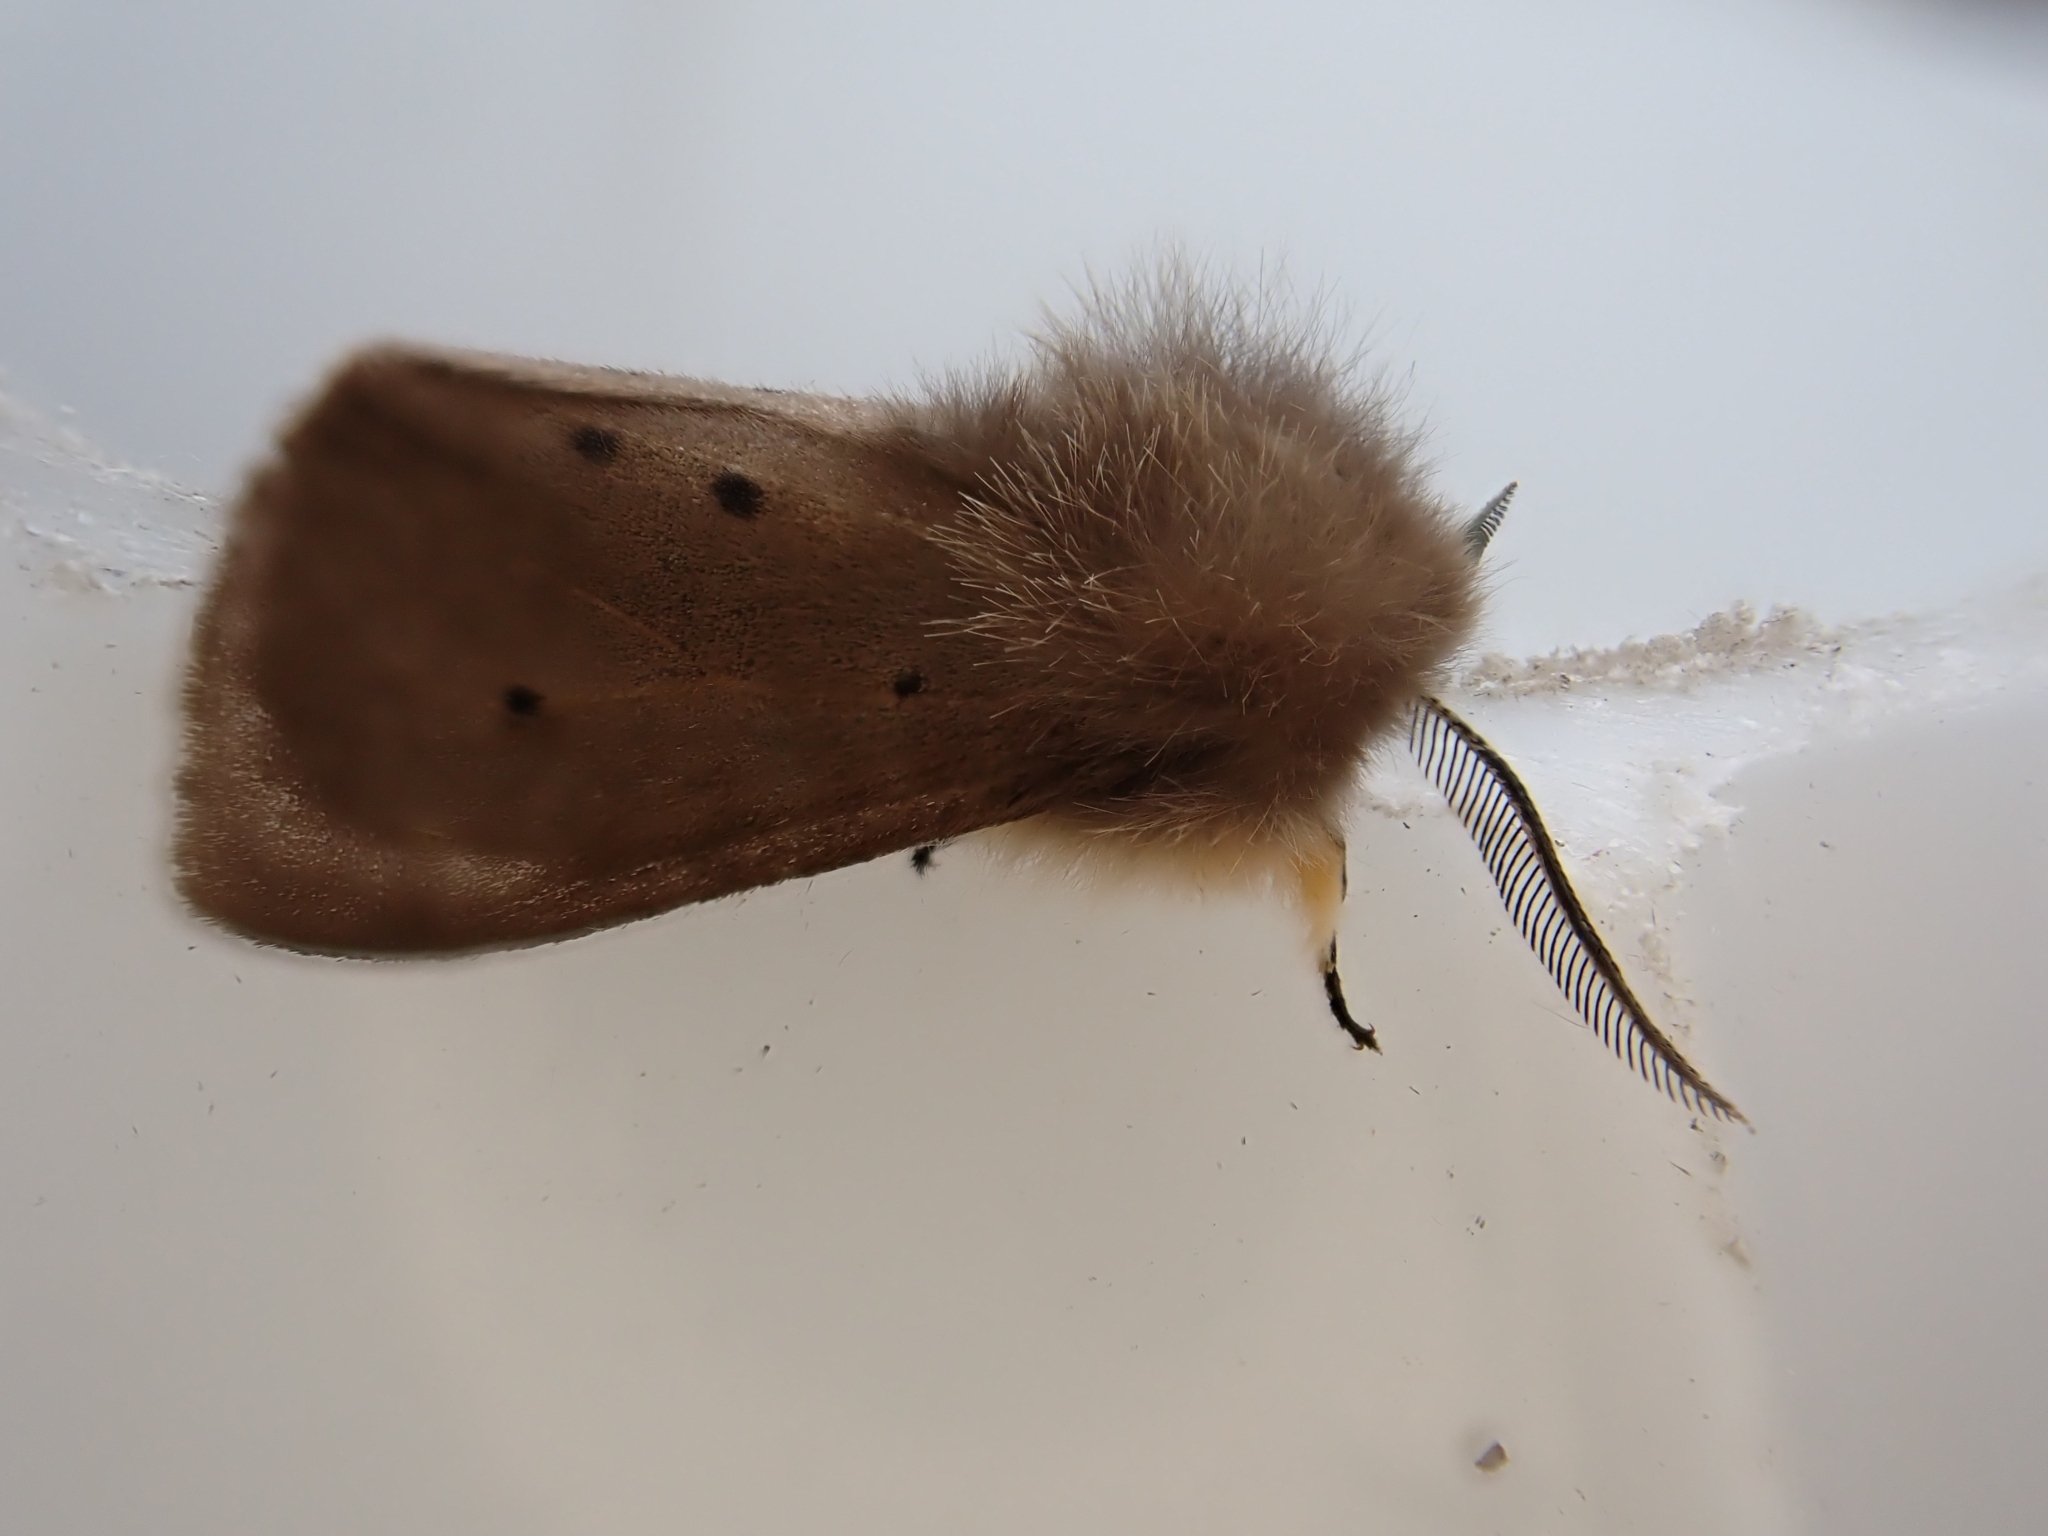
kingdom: Animalia
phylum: Arthropoda
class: Insecta
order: Lepidoptera
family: Erebidae
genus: Diaphora
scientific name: Diaphora mendica
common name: Muslin moth
